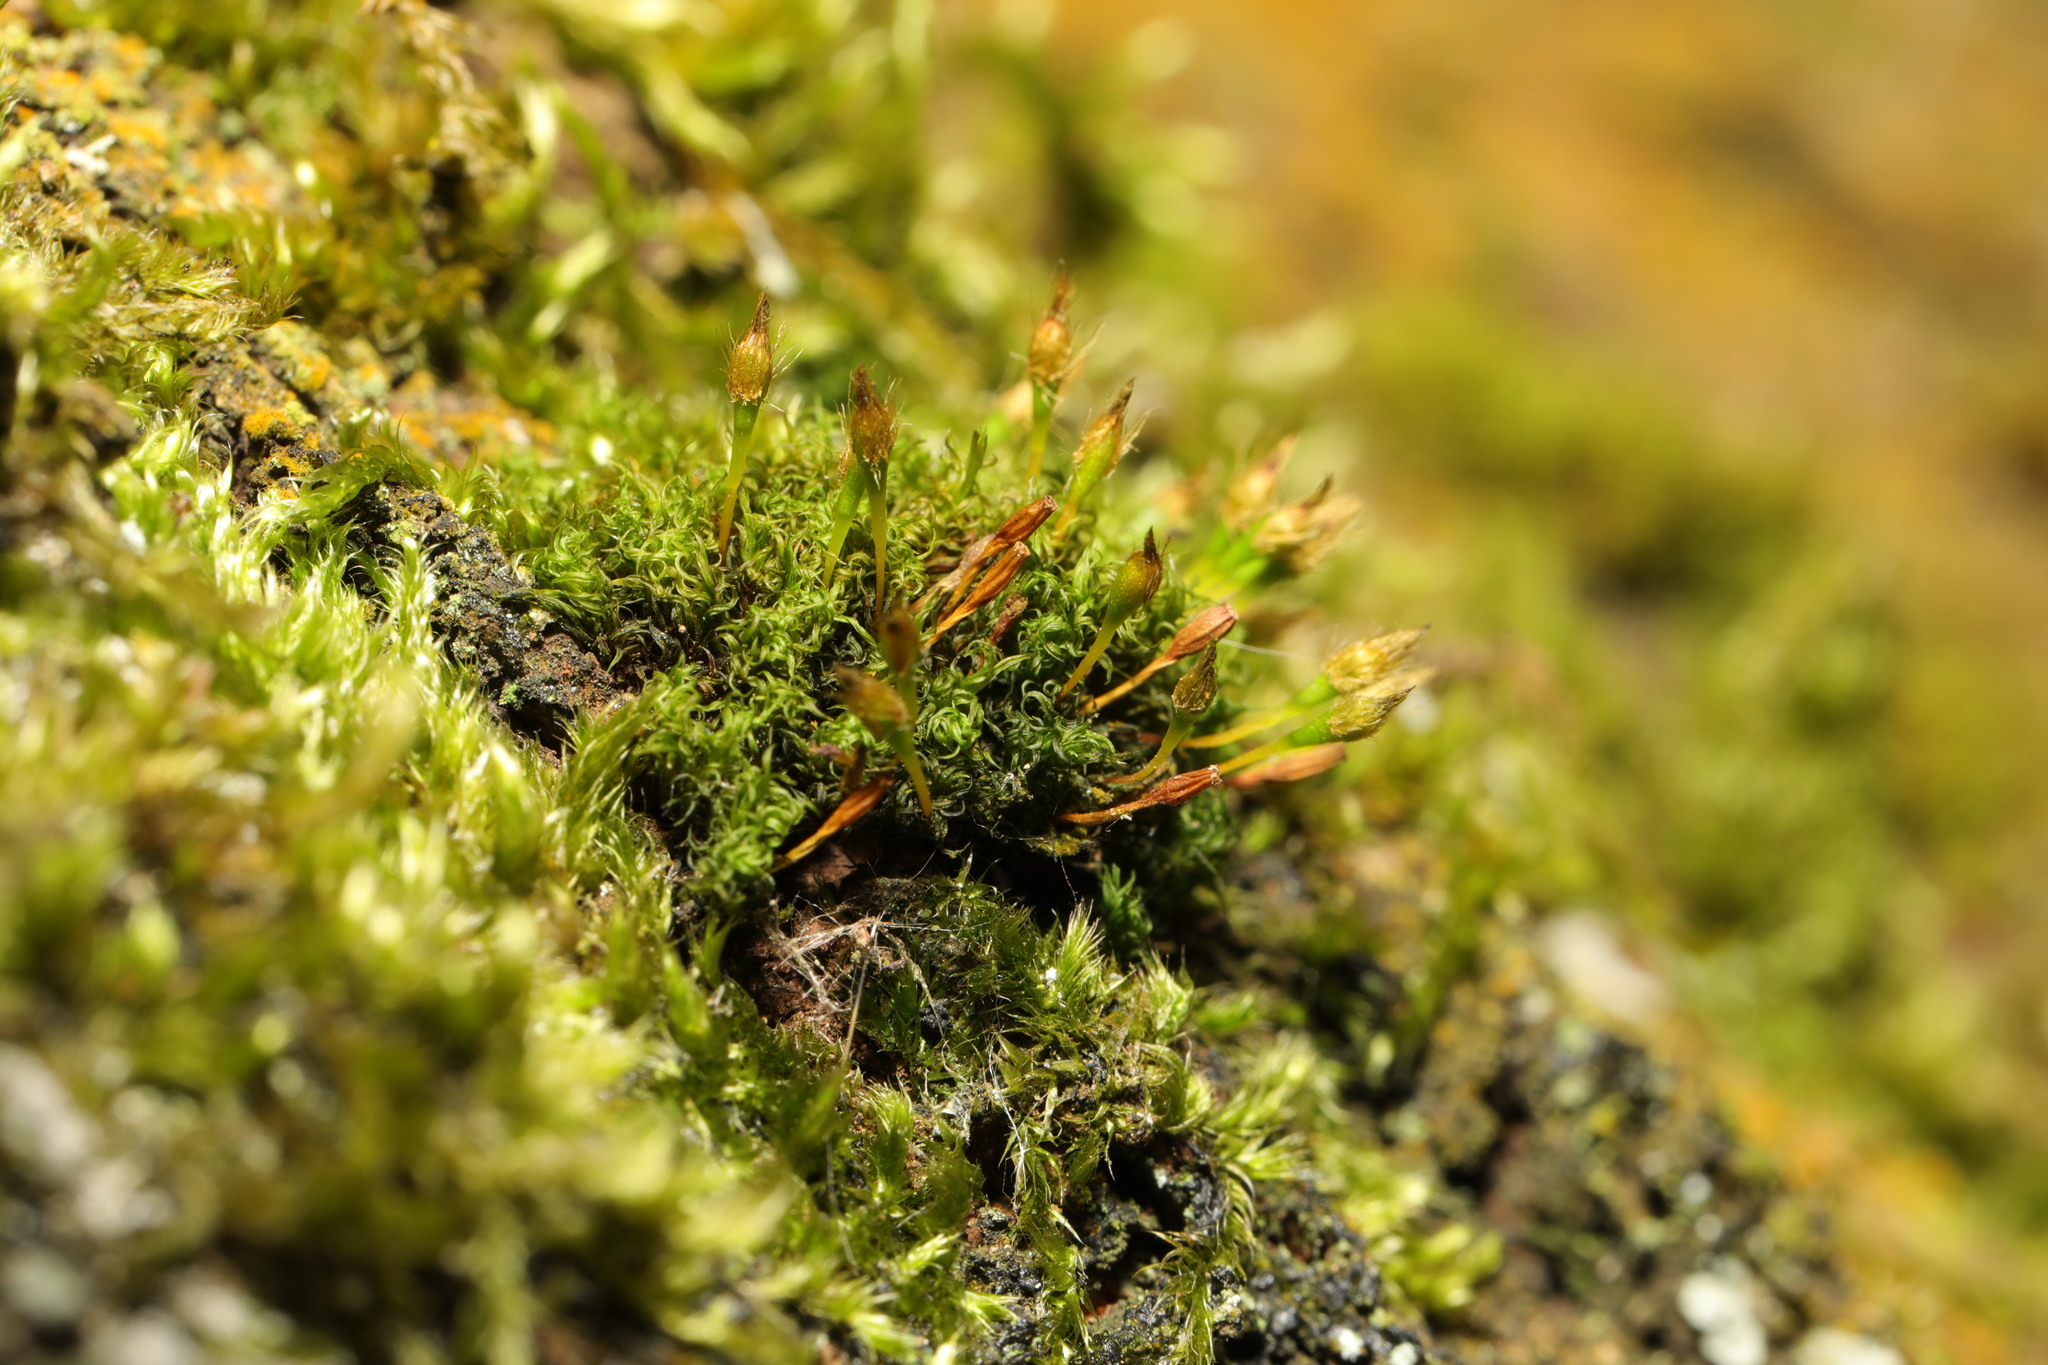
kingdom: Plantae
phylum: Bryophyta
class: Bryopsida
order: Orthotrichales
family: Orthotrichaceae
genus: Ulota
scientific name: Ulota bruchii
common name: Bruch's pincushion
